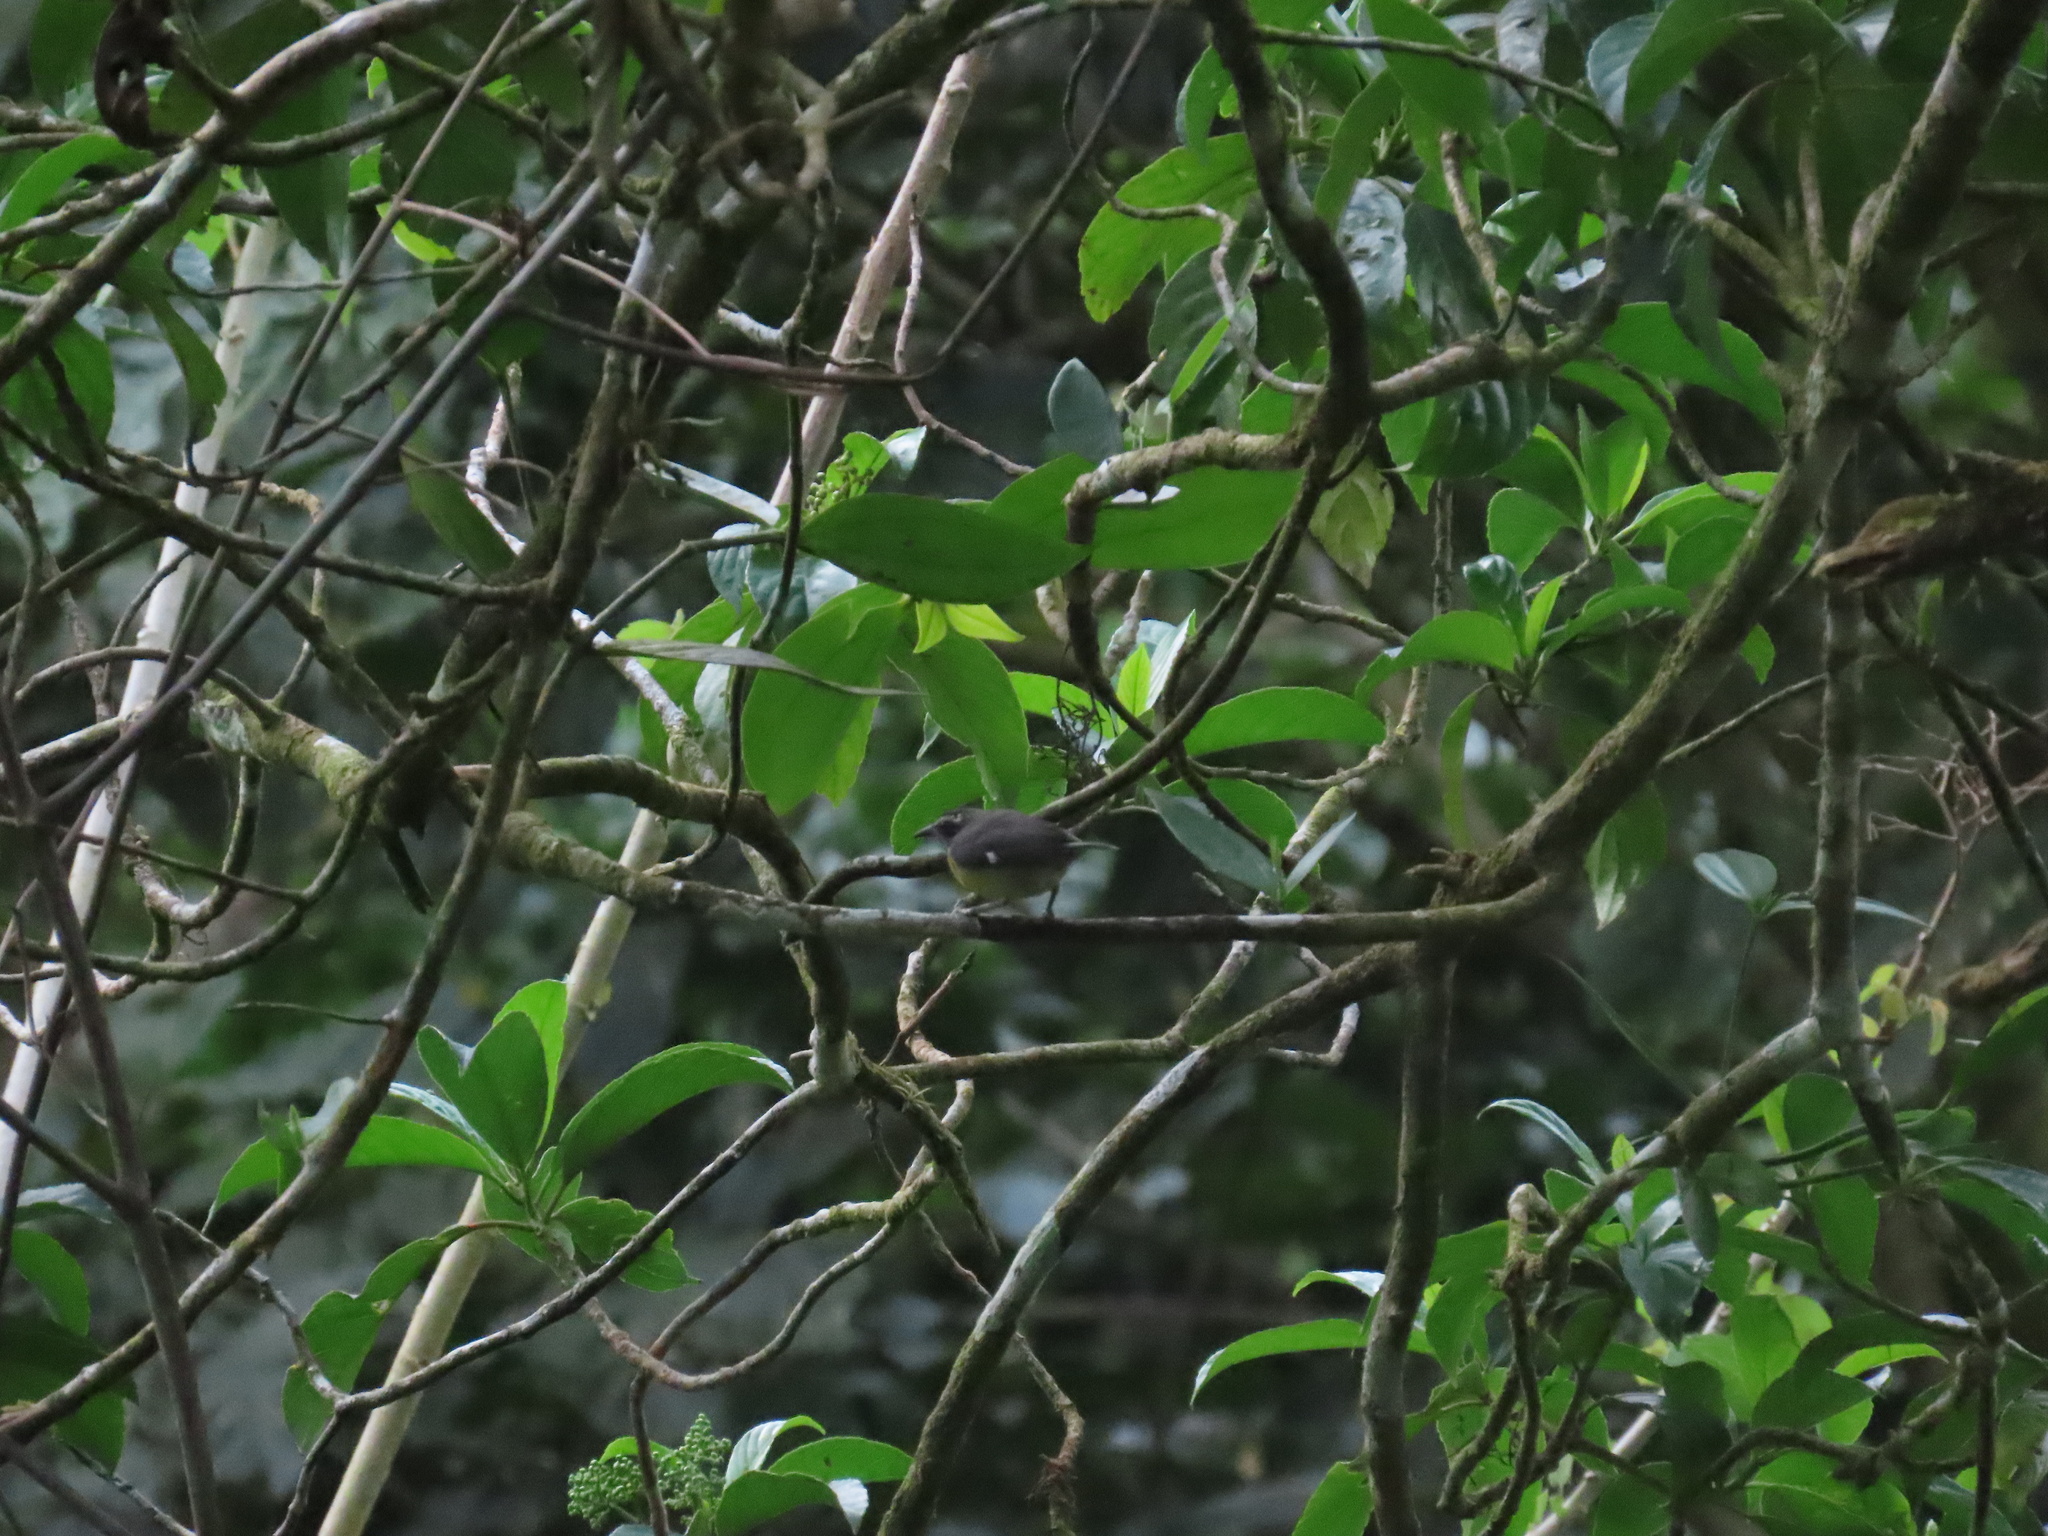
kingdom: Animalia
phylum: Chordata
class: Aves
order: Passeriformes
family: Thraupidae
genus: Coereba
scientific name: Coereba flaveola
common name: Bananaquit
